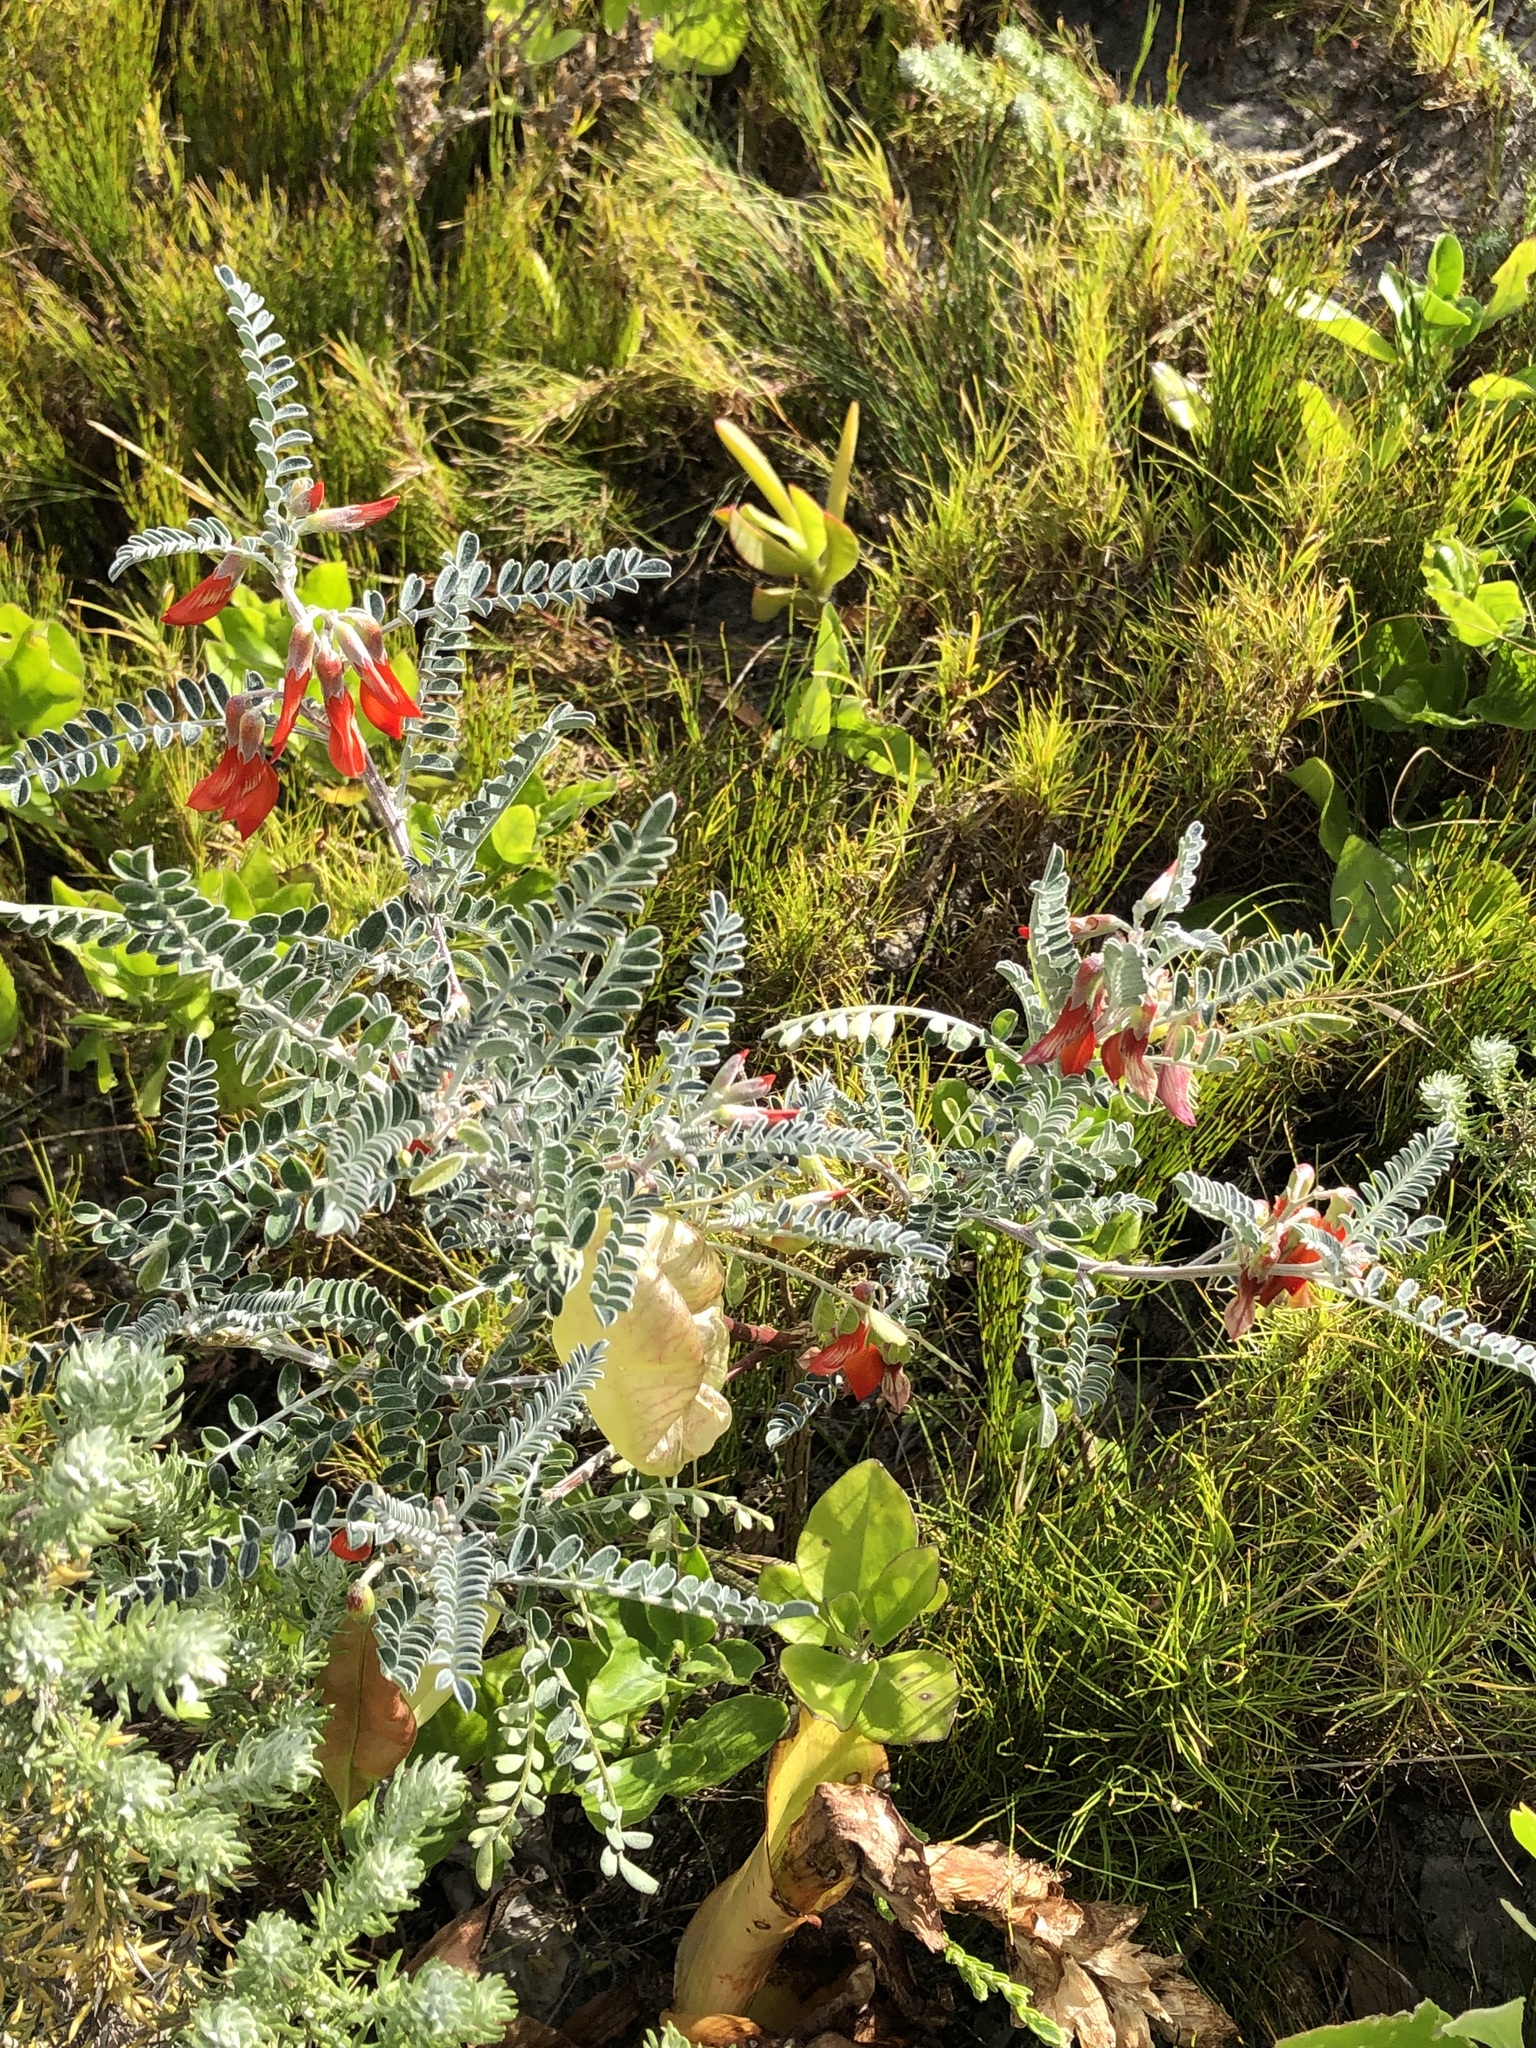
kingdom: Plantae
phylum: Tracheophyta
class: Magnoliopsida
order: Fabales
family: Fabaceae
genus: Lessertia
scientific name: Lessertia frutescens
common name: Balloon-pea
